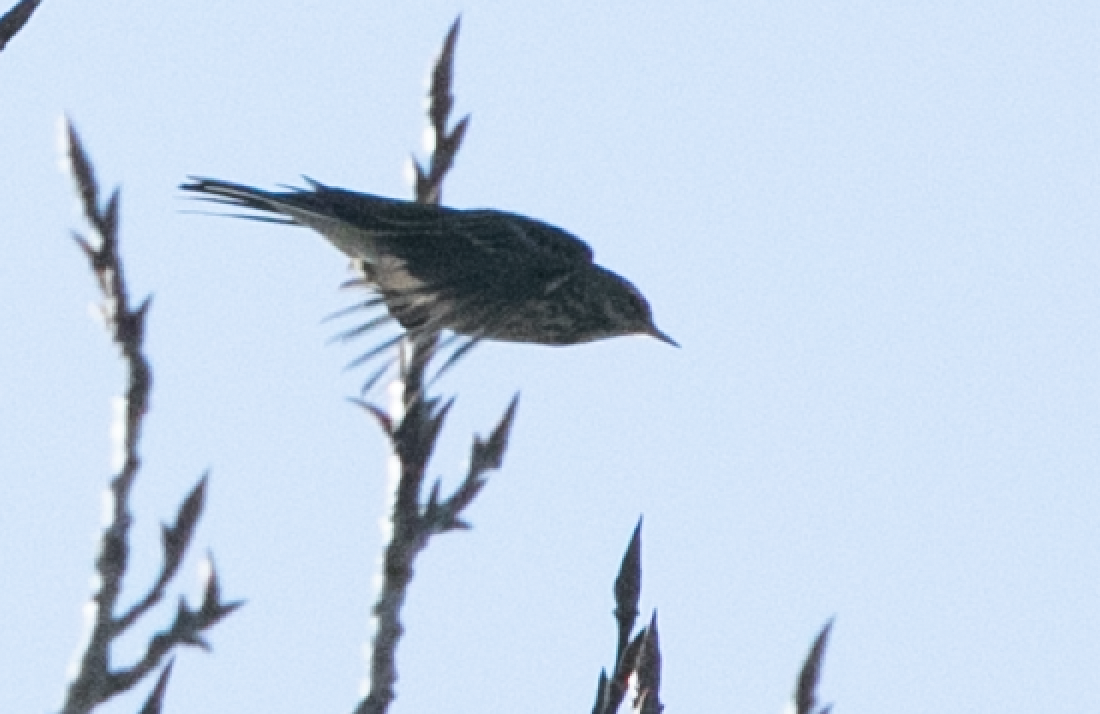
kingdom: Animalia
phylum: Chordata
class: Aves
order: Passeriformes
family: Motacillidae
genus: Anthus
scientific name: Anthus spinoletta
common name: Water pipit
